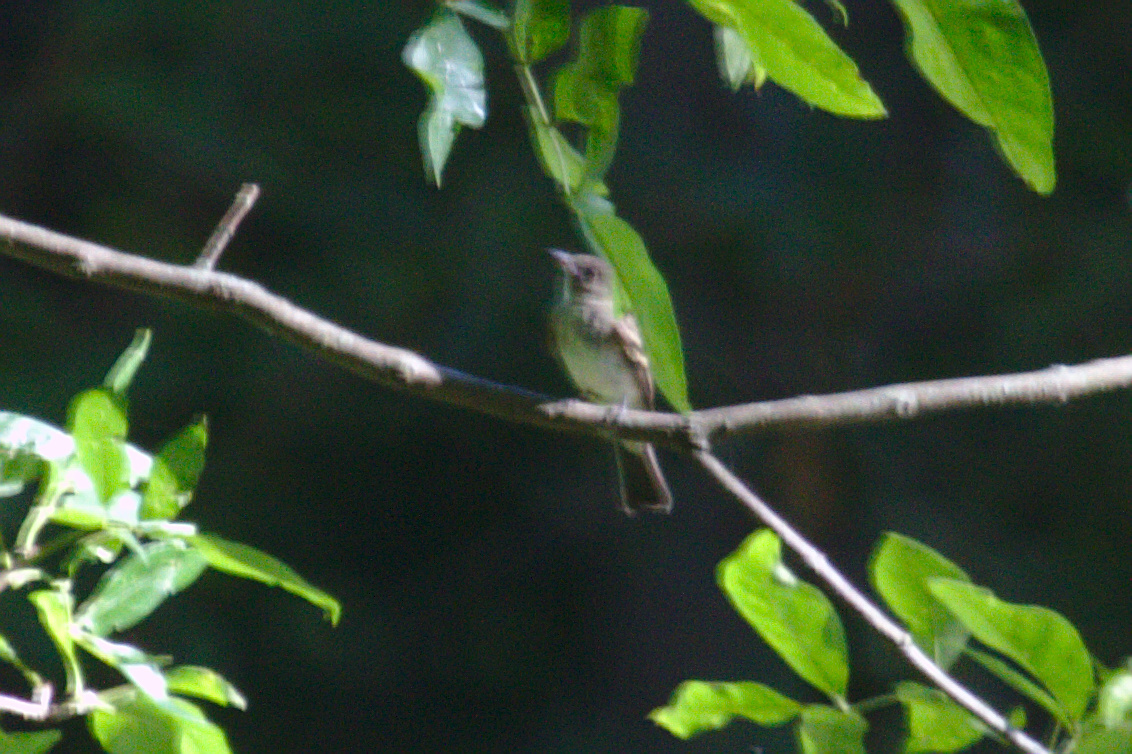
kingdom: Animalia
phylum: Chordata
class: Aves
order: Passeriformes
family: Tyrannidae
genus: Contopus
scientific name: Contopus virens
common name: Eastern wood-pewee
